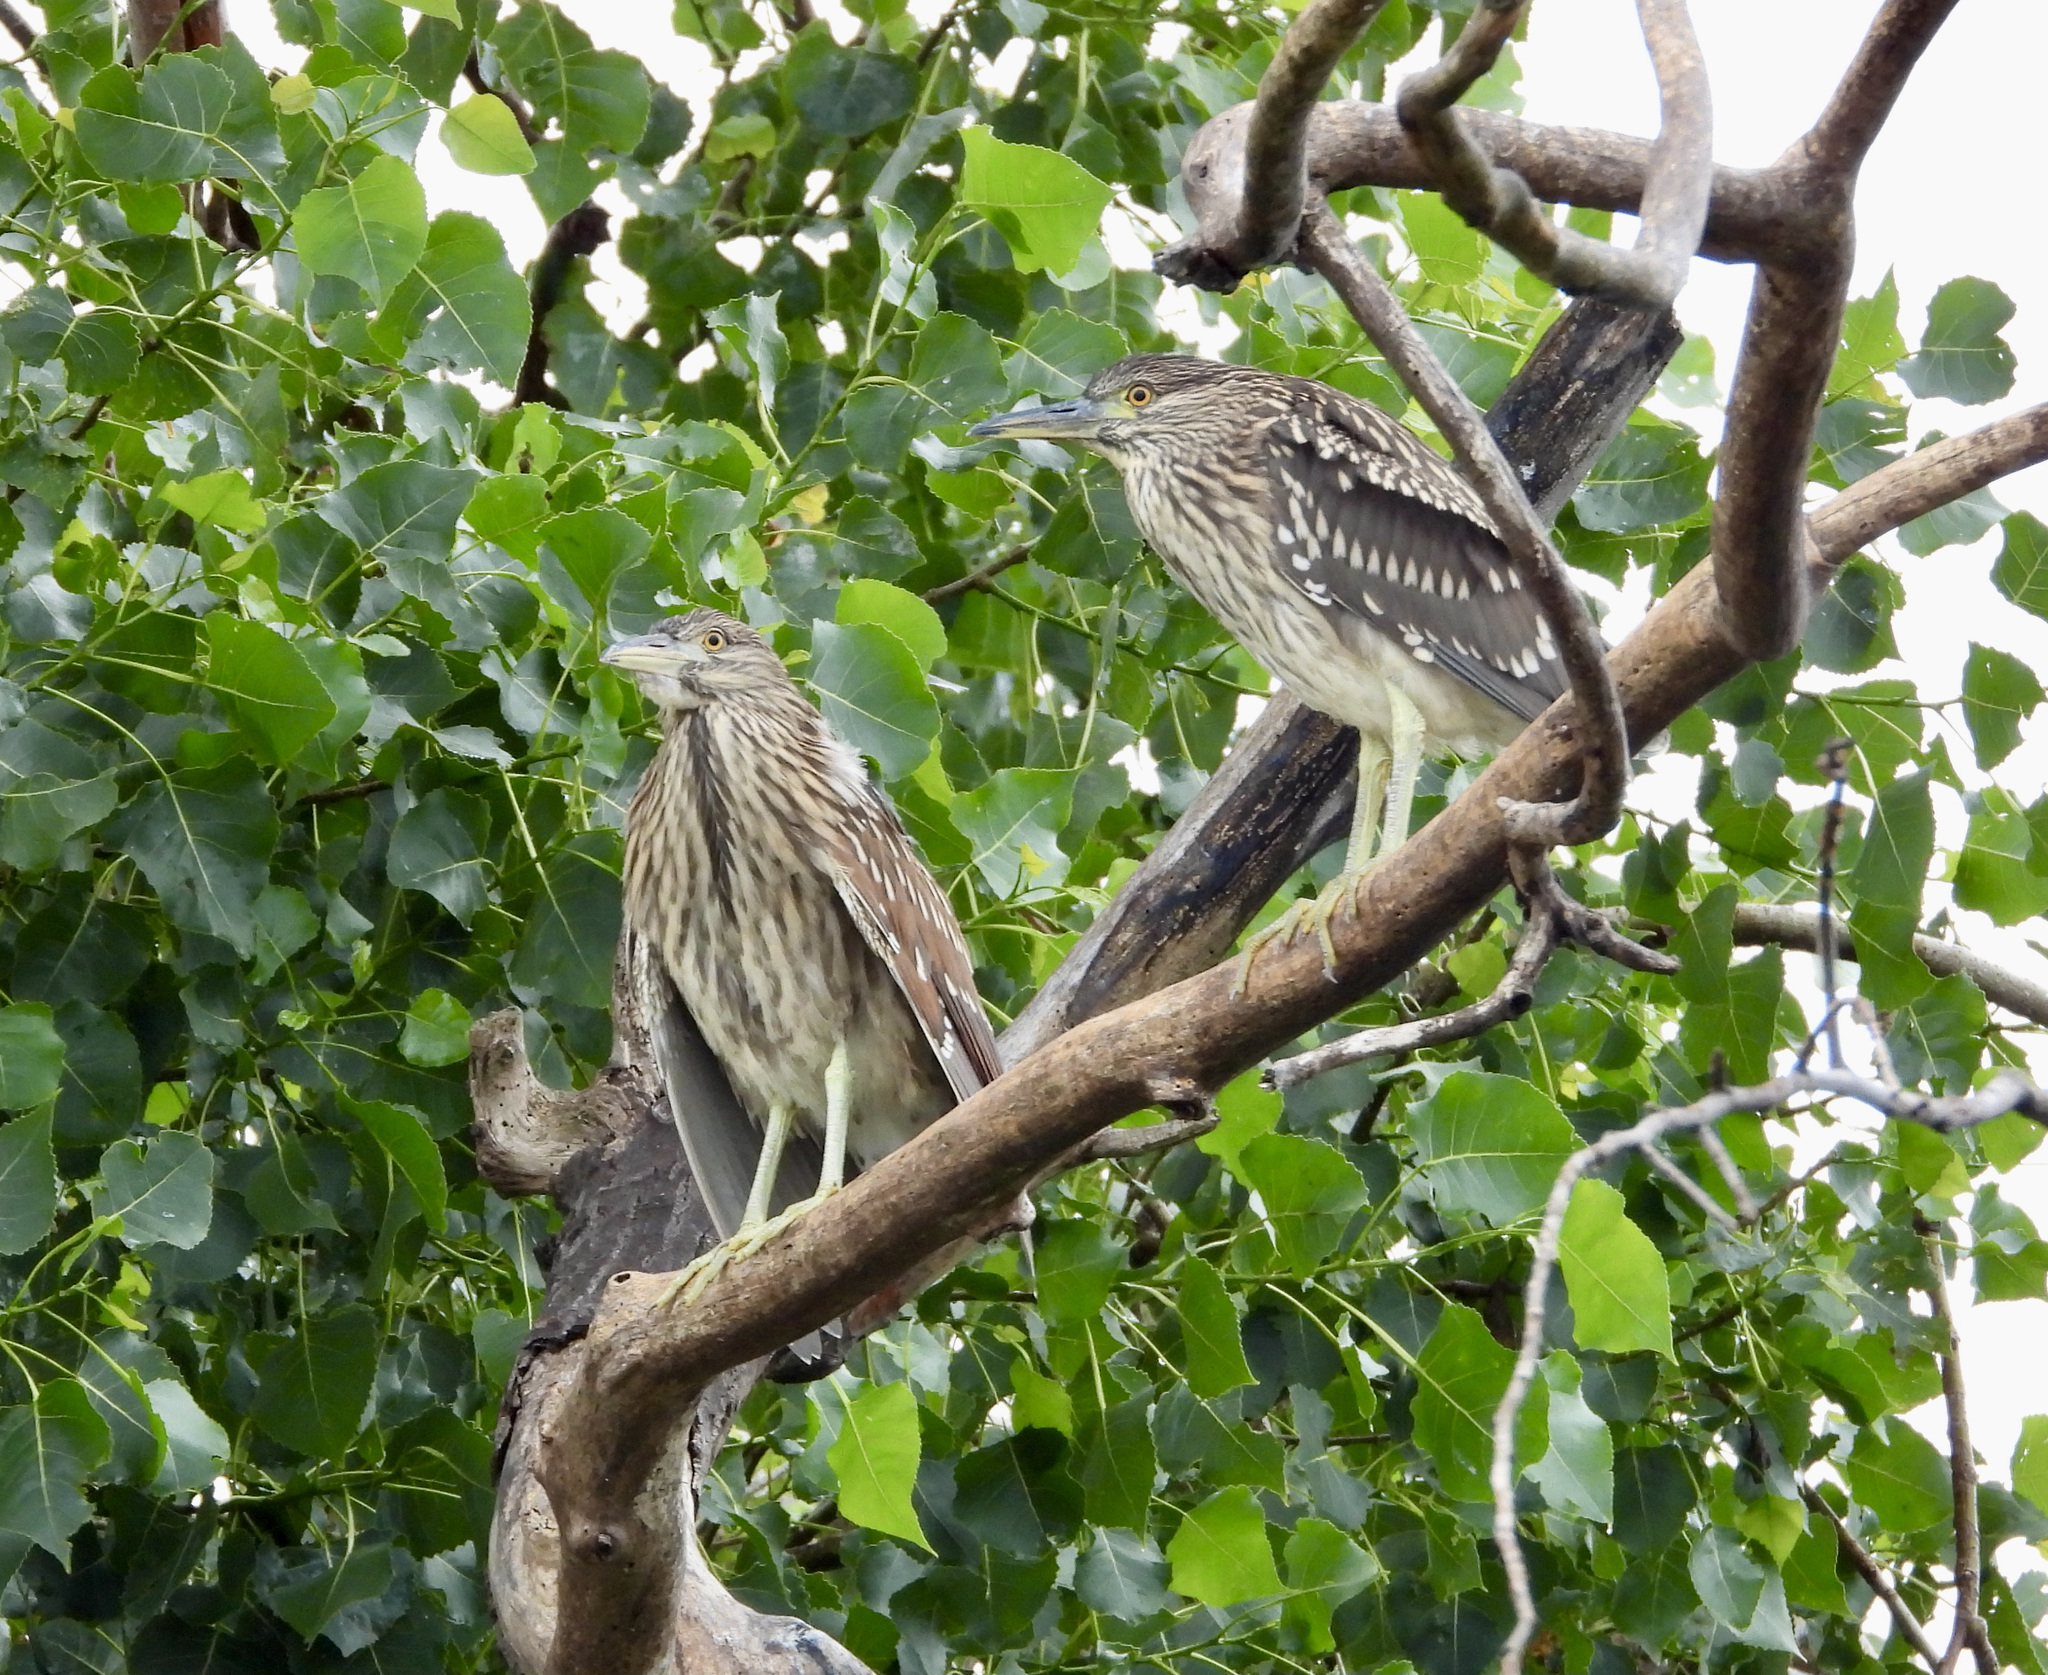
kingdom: Animalia
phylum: Chordata
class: Aves
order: Pelecaniformes
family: Ardeidae
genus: Nycticorax
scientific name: Nycticorax nycticorax
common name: Black-crowned night heron
